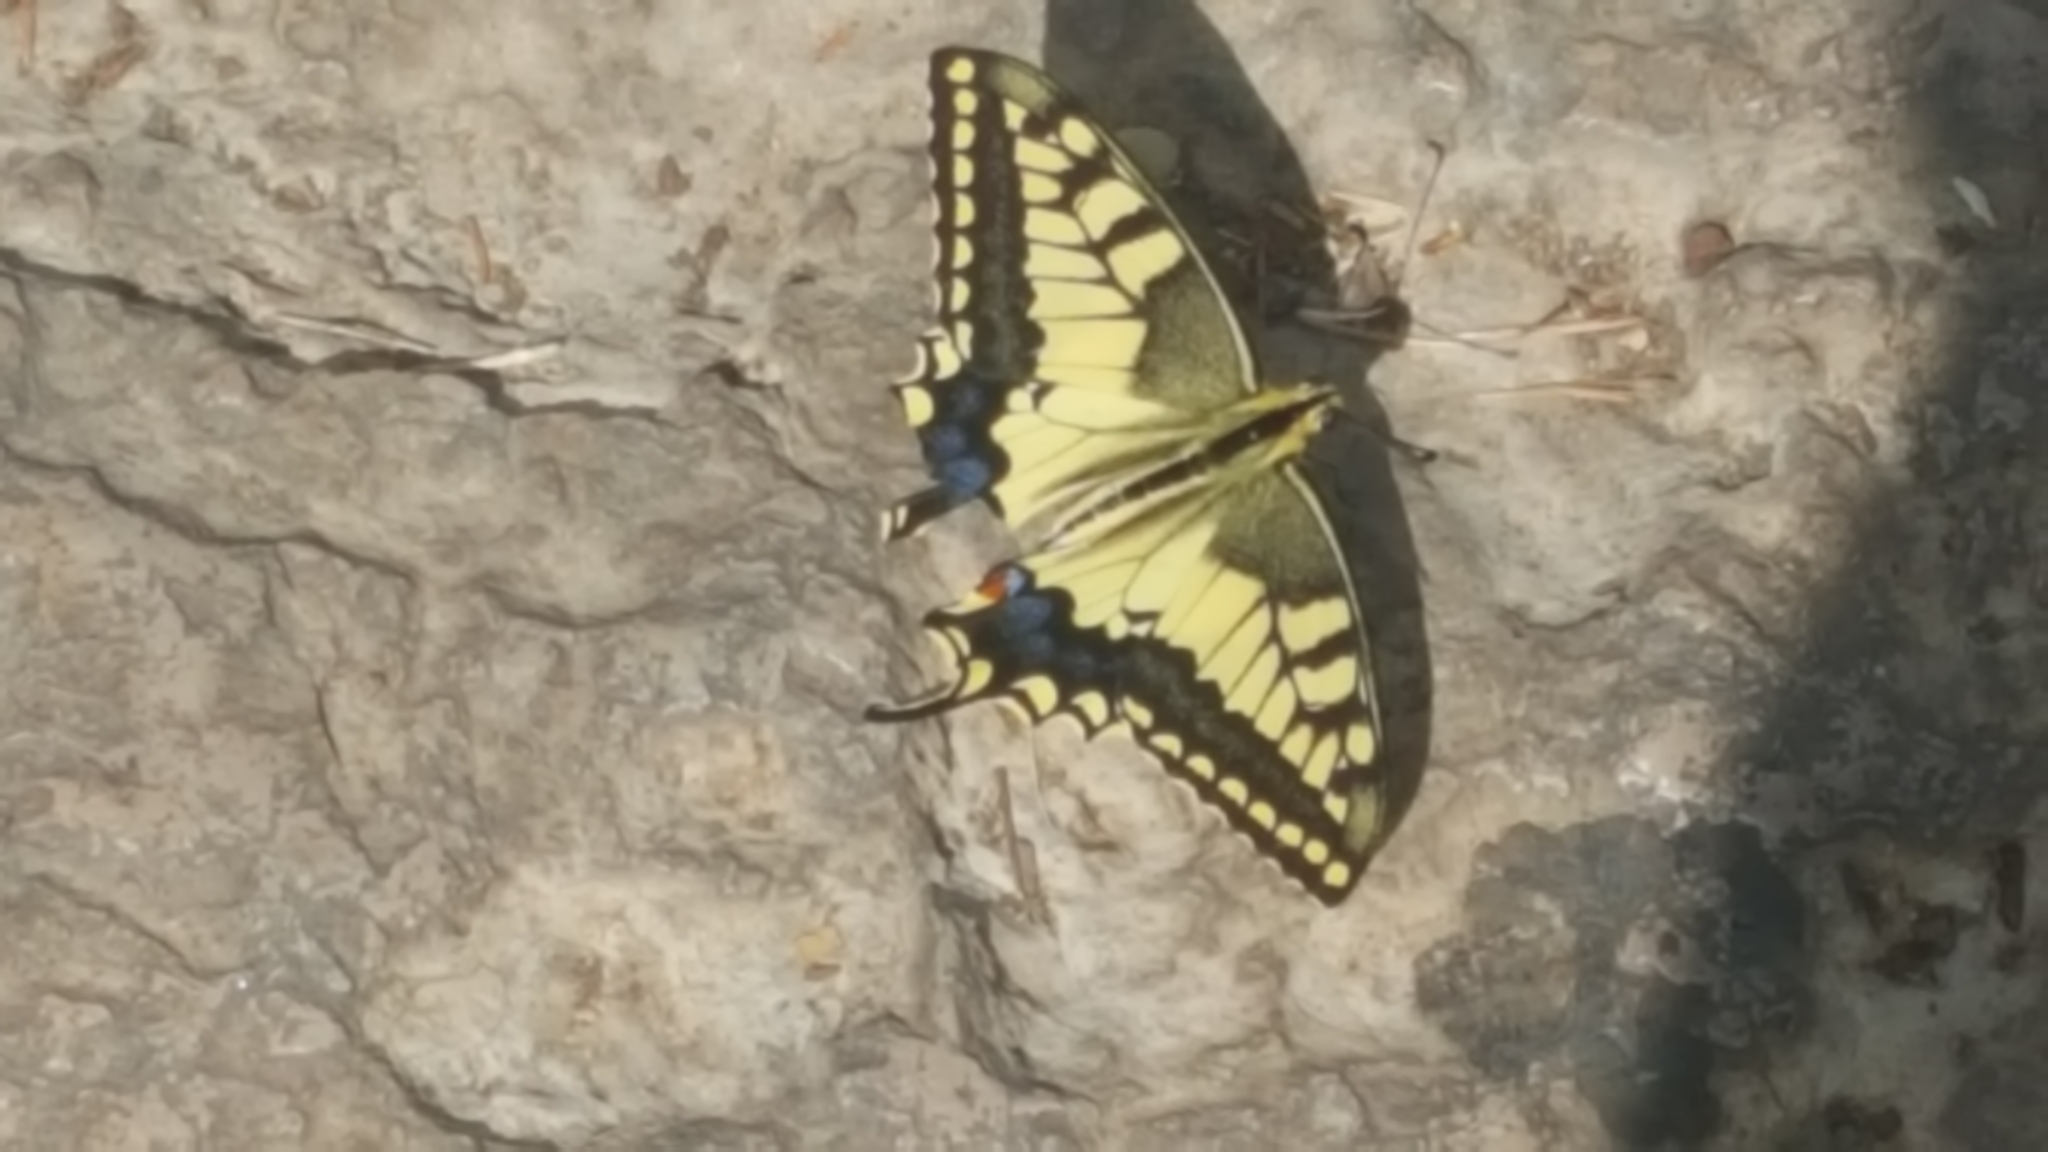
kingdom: Animalia
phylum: Arthropoda
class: Insecta
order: Lepidoptera
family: Papilionidae
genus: Papilio
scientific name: Papilio machaon
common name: Swallowtail
